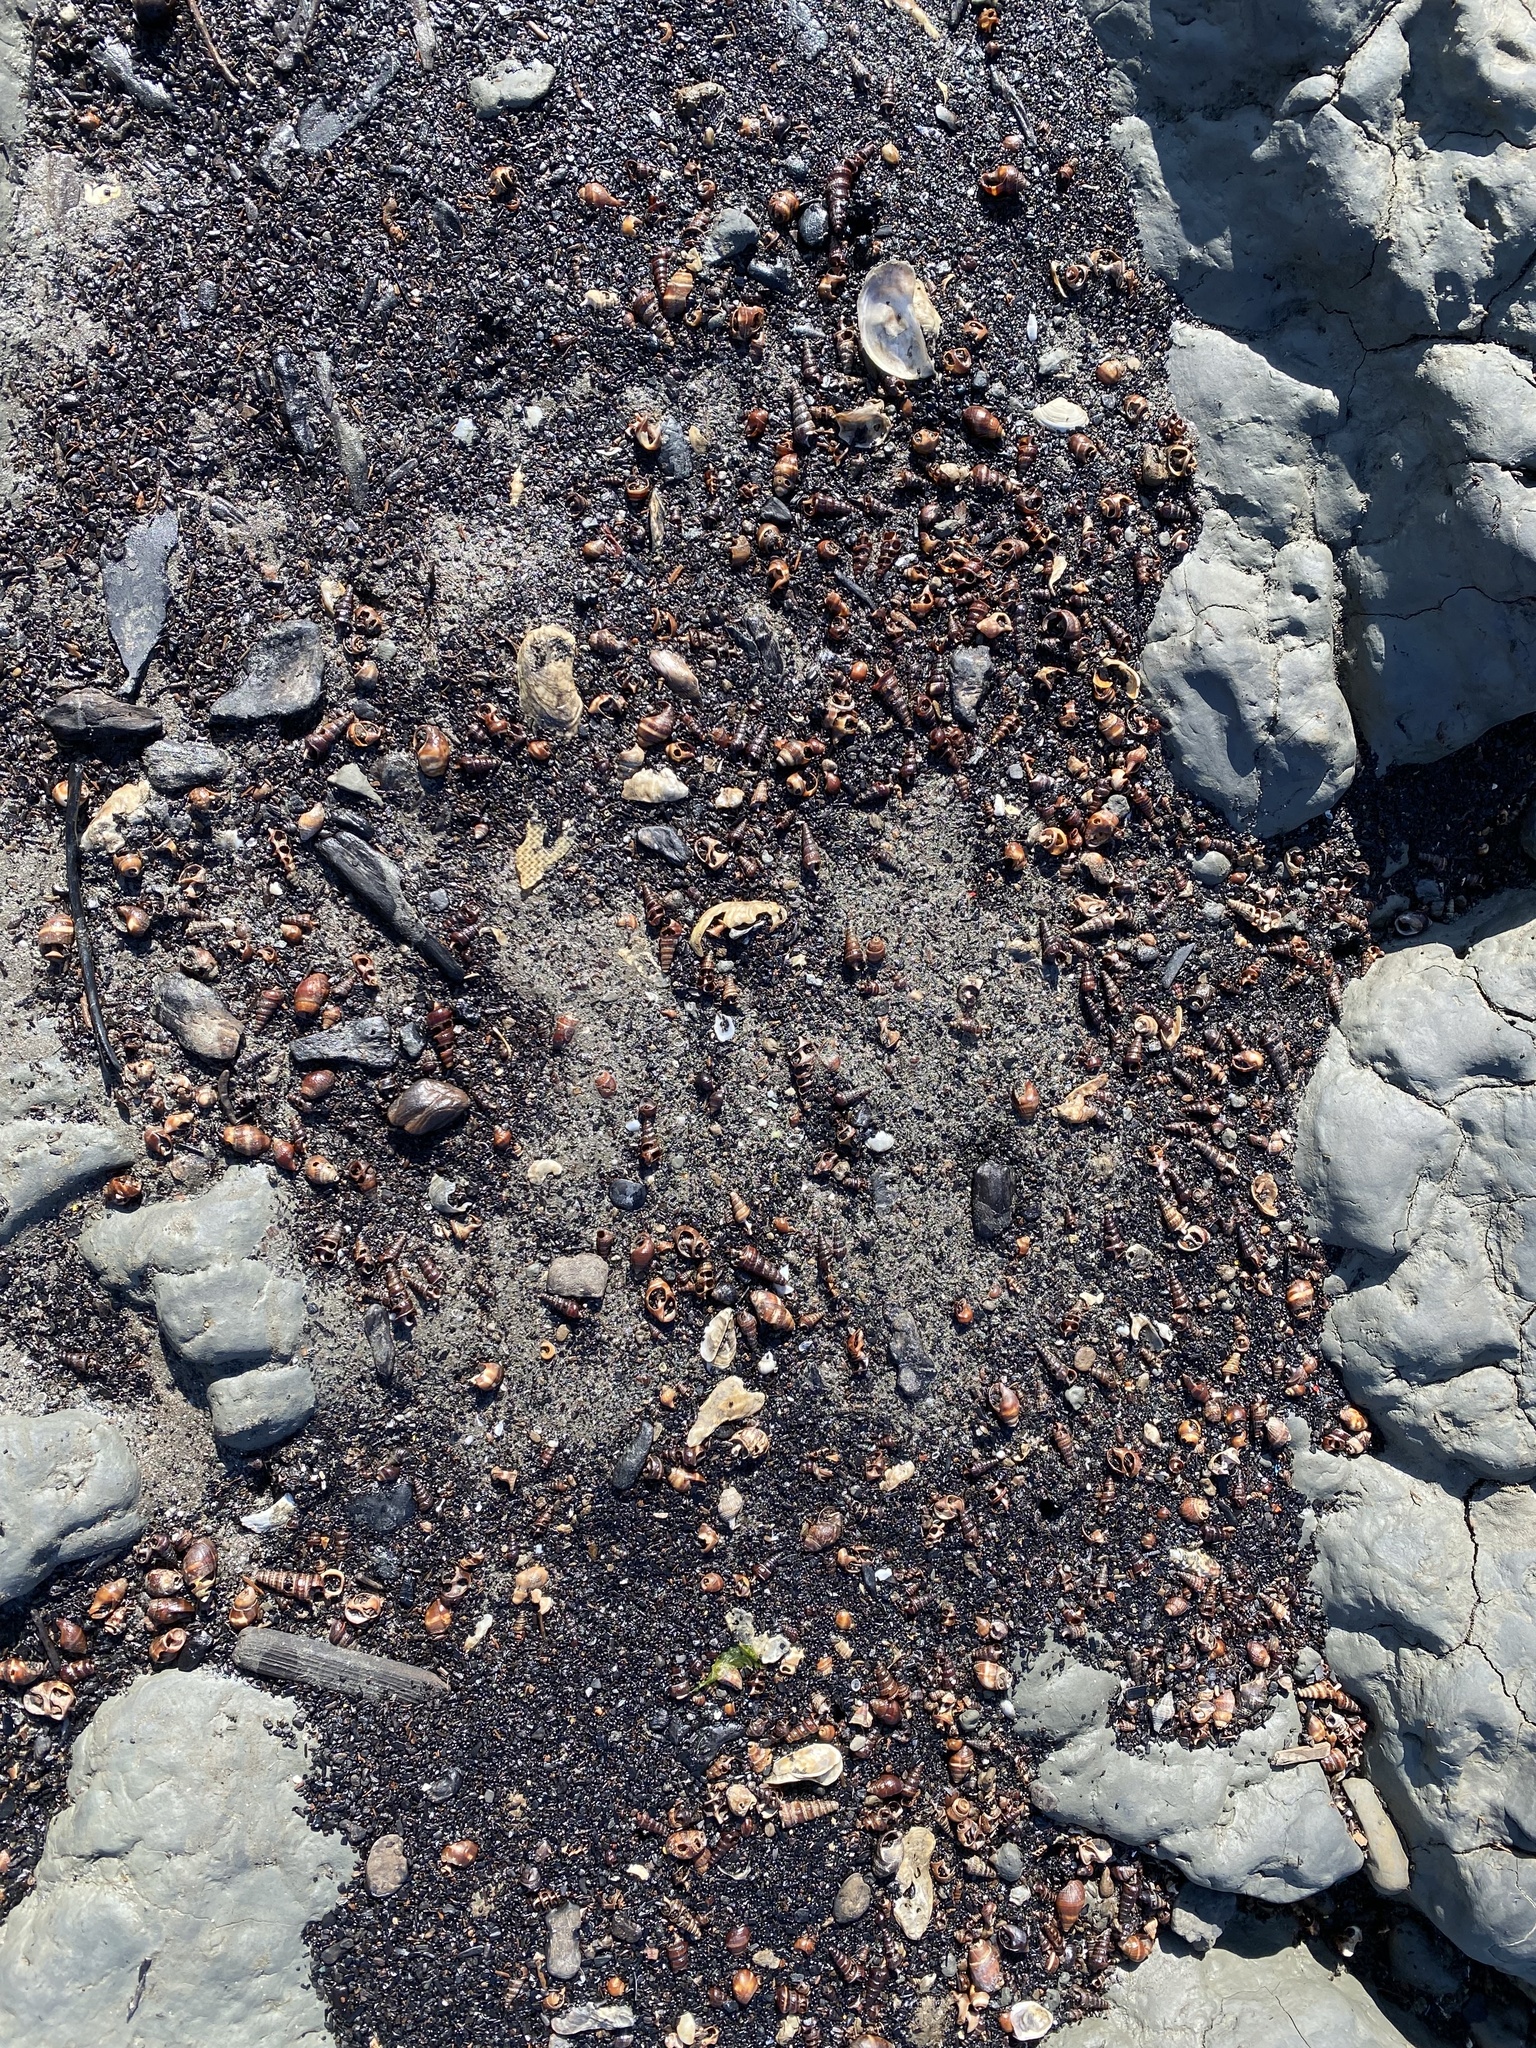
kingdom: Animalia
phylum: Mollusca
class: Gastropoda
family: Potamididae
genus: Cerithideopsis
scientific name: Cerithideopsis californica
